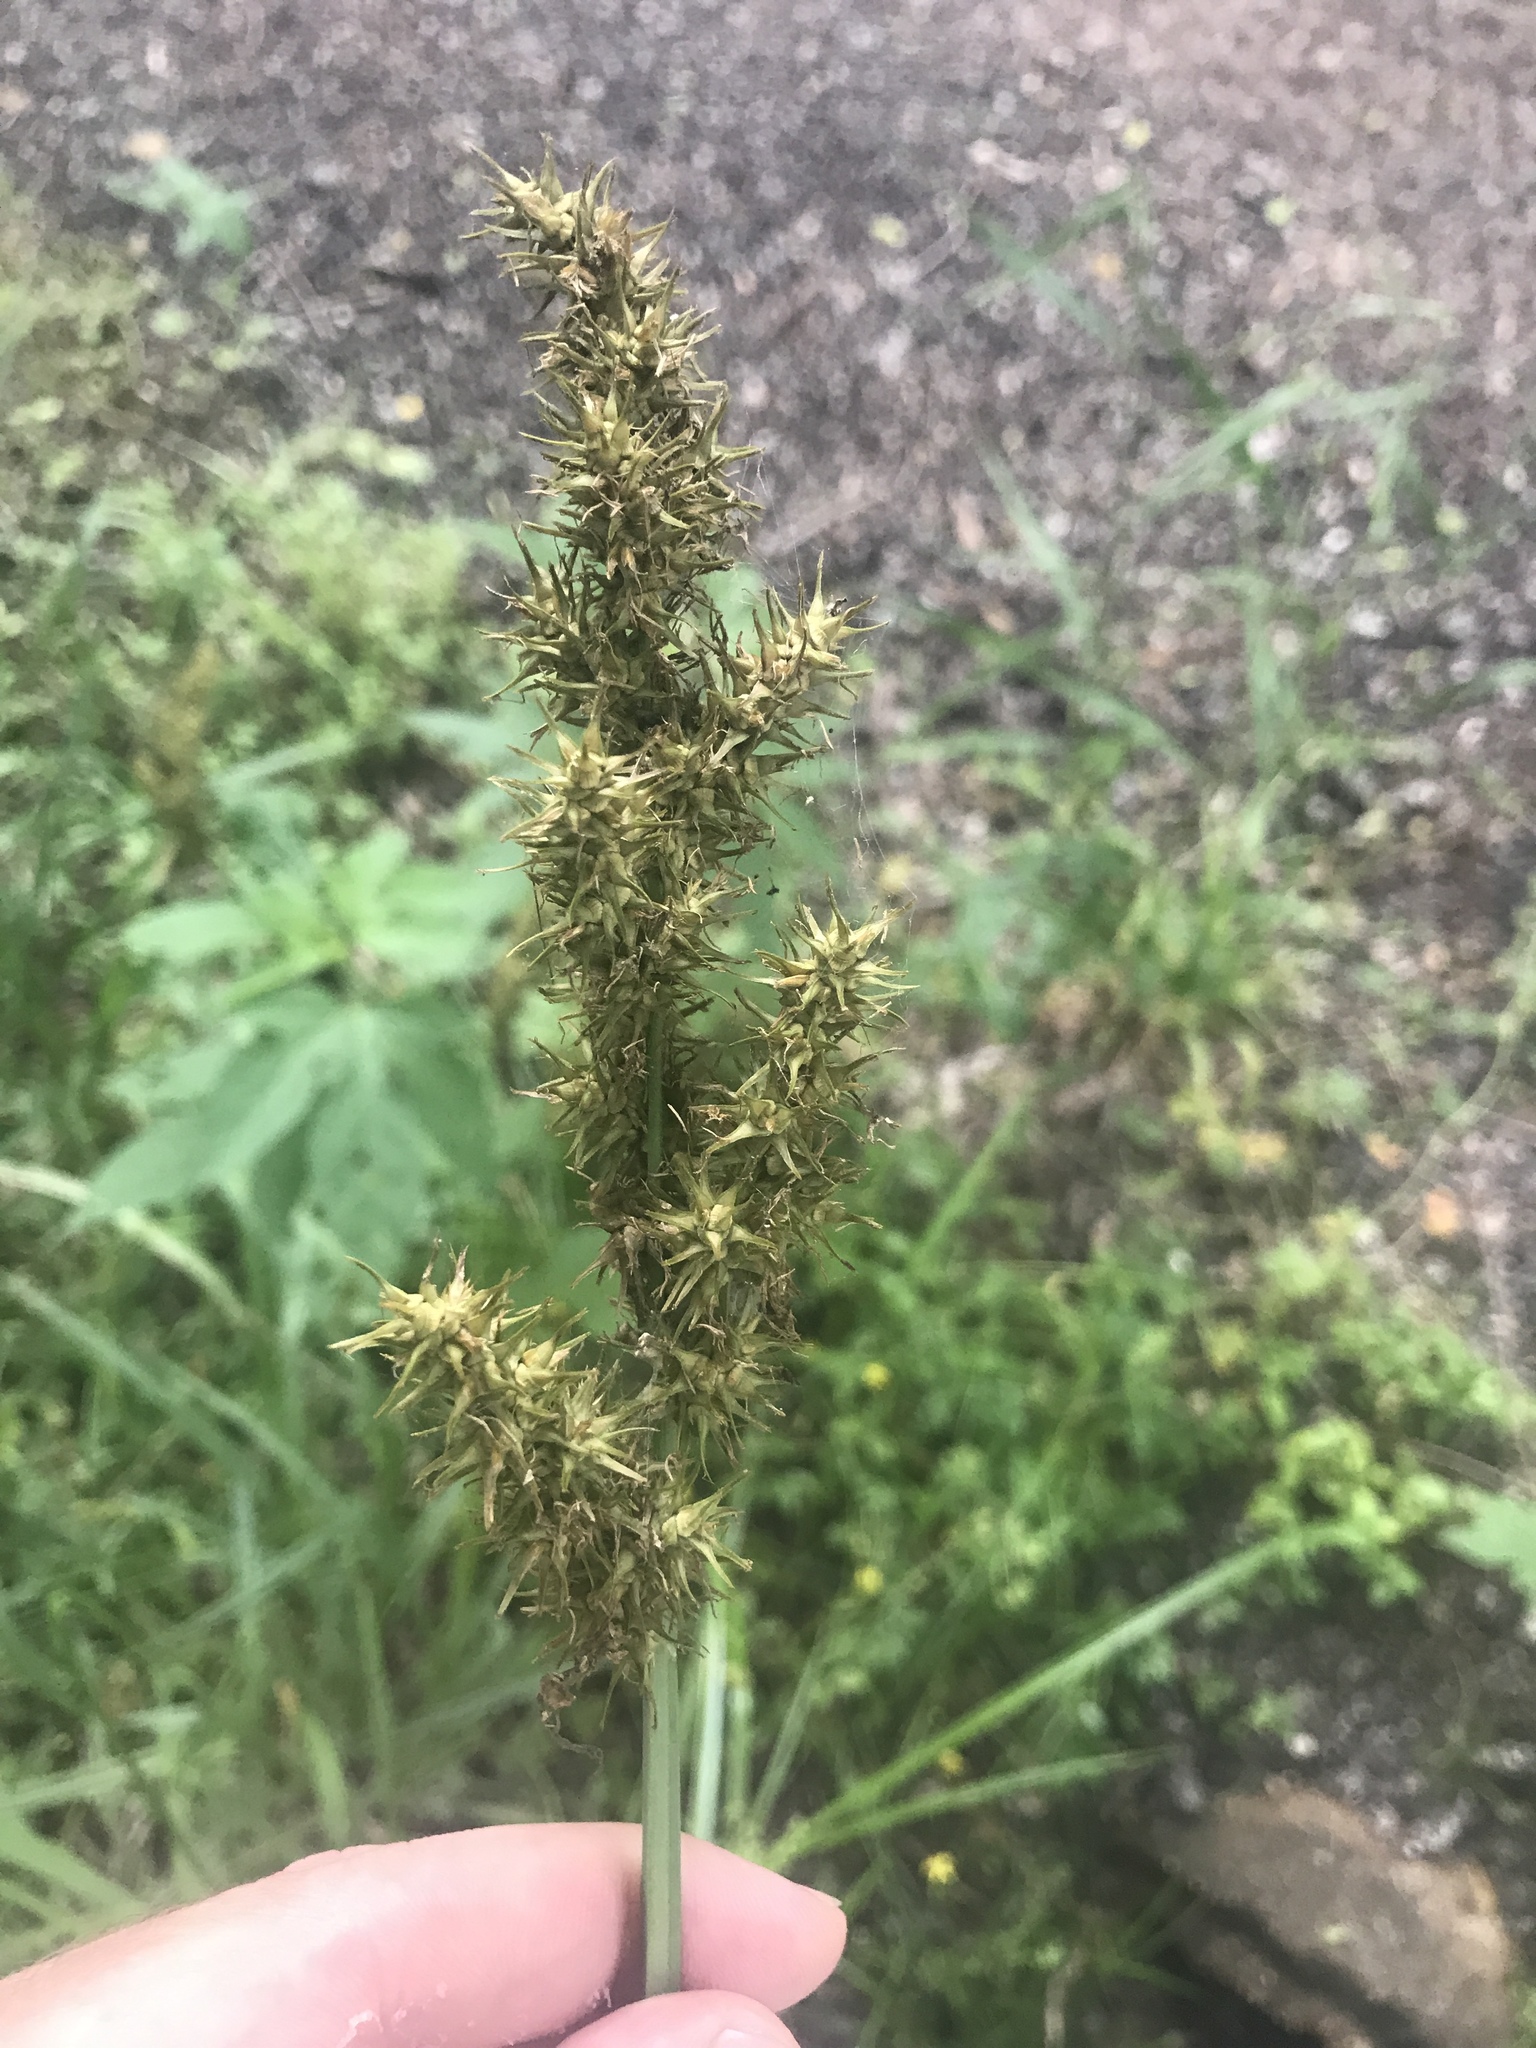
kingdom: Plantae
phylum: Tracheophyta
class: Liliopsida
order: Poales
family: Cyperaceae
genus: Carex
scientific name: Carex crus-corvi
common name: Crow-spur sedge
